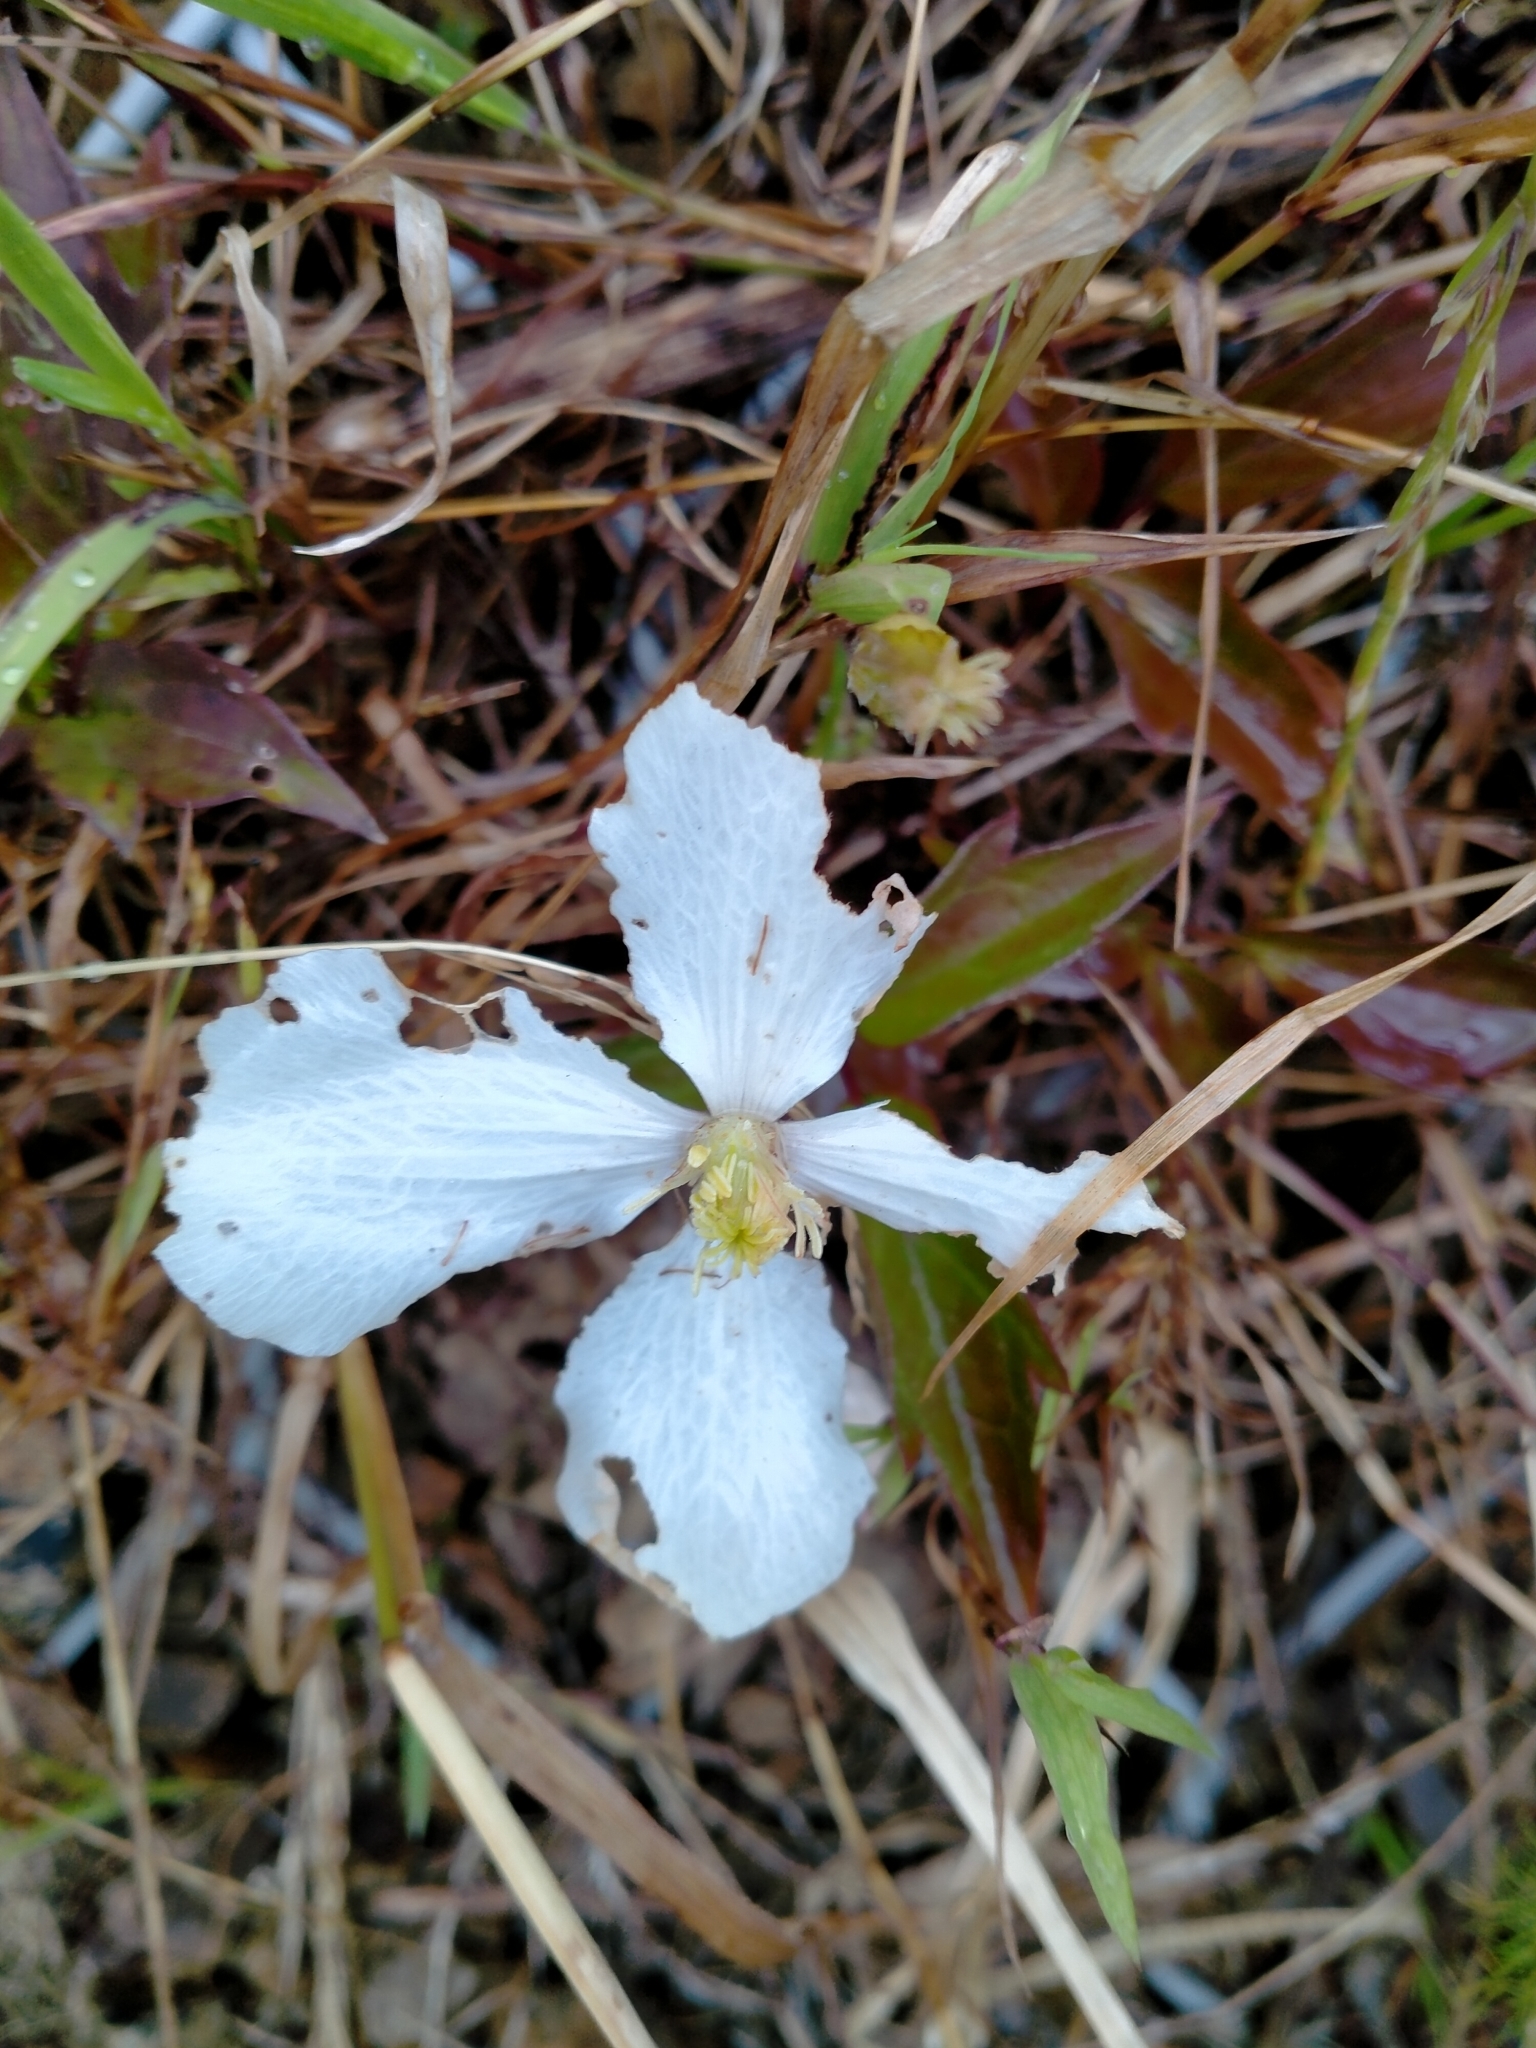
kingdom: Plantae
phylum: Tracheophyta
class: Magnoliopsida
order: Ranunculales
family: Ranunculaceae
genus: Clematis
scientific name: Clematis montana
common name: Himalayan clematis
